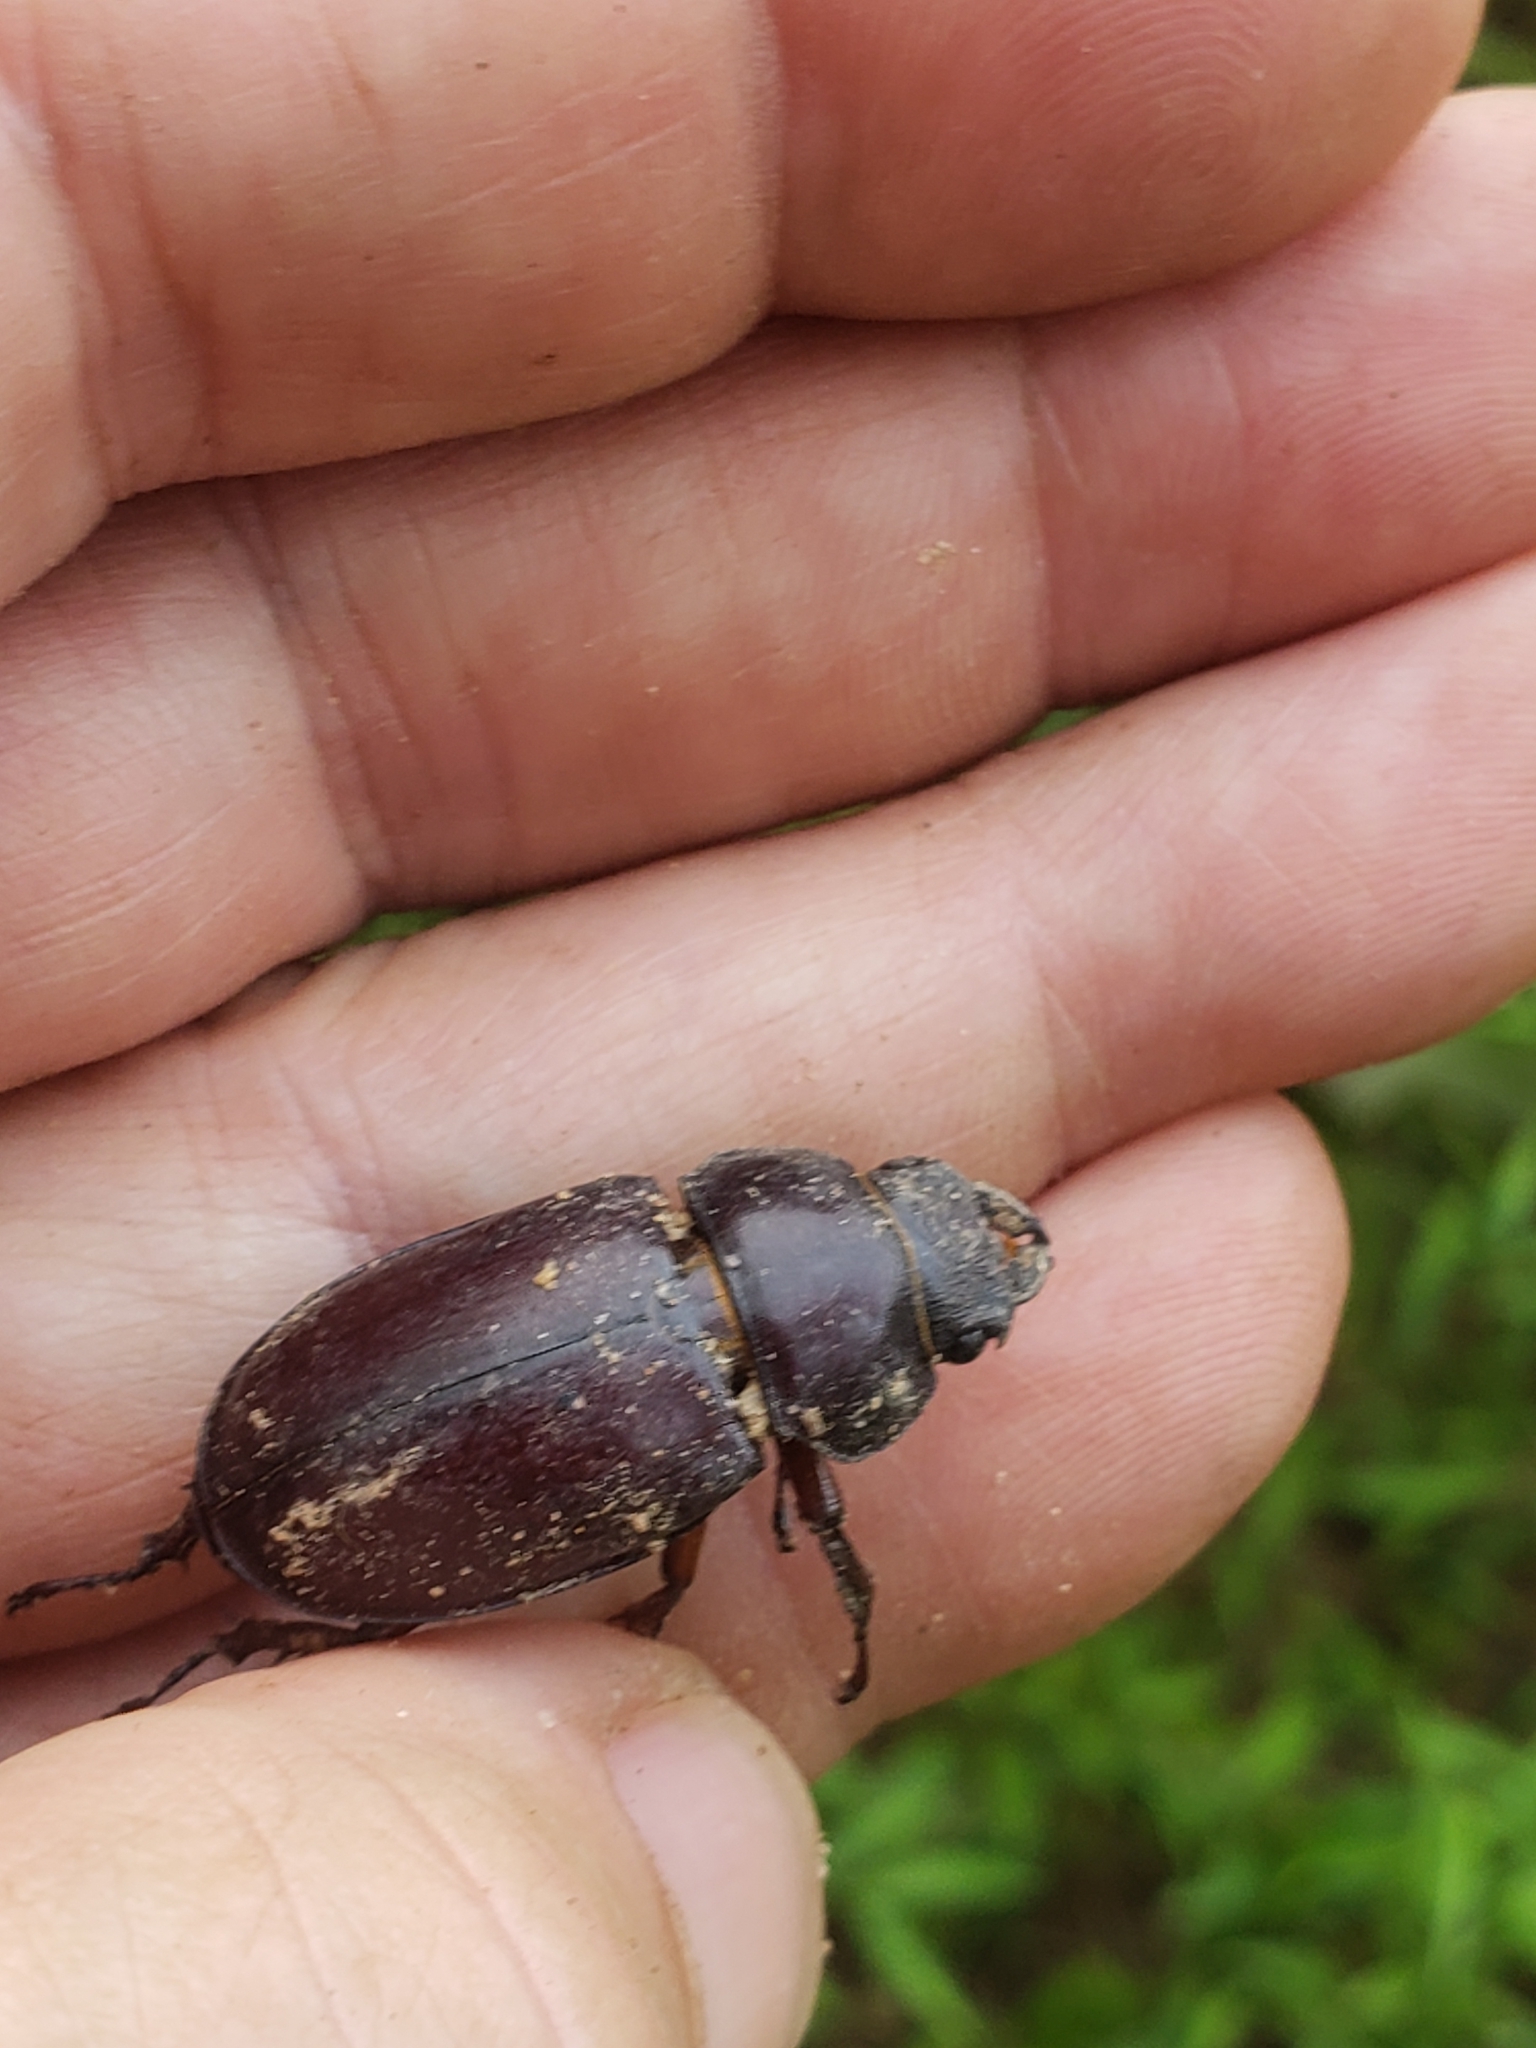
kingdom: Animalia
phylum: Arthropoda
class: Insecta
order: Coleoptera
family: Lucanidae
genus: Lucanus
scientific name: Lucanus capreolus
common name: Stag beetle
